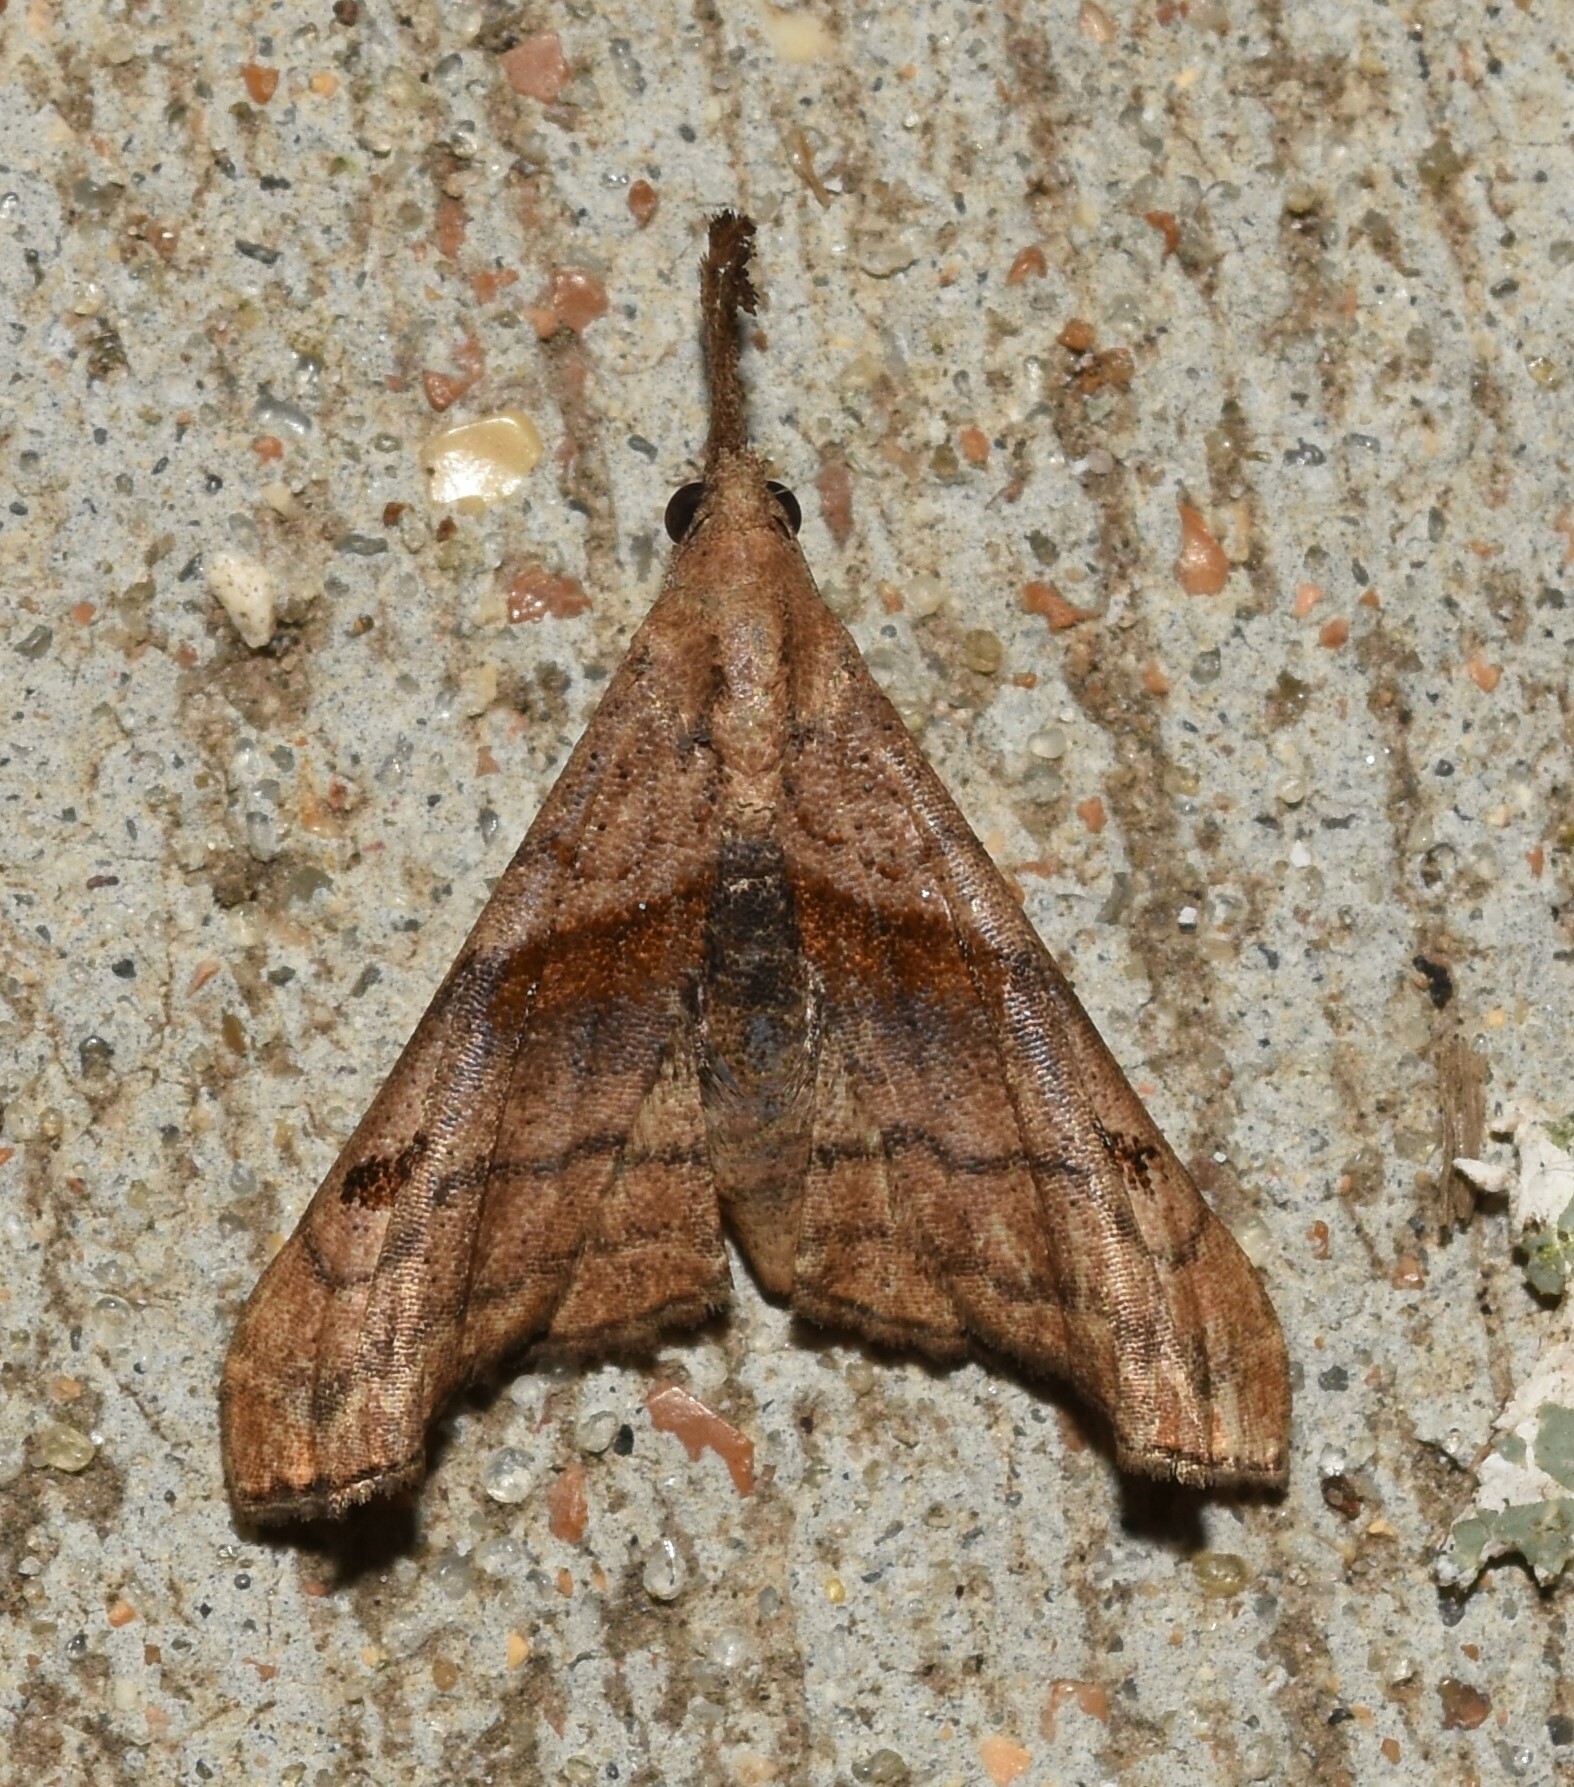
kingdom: Animalia
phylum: Arthropoda
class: Insecta
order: Lepidoptera
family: Erebidae
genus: Palthis
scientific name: Palthis angulalis
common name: Dark-spotted palthis moth
